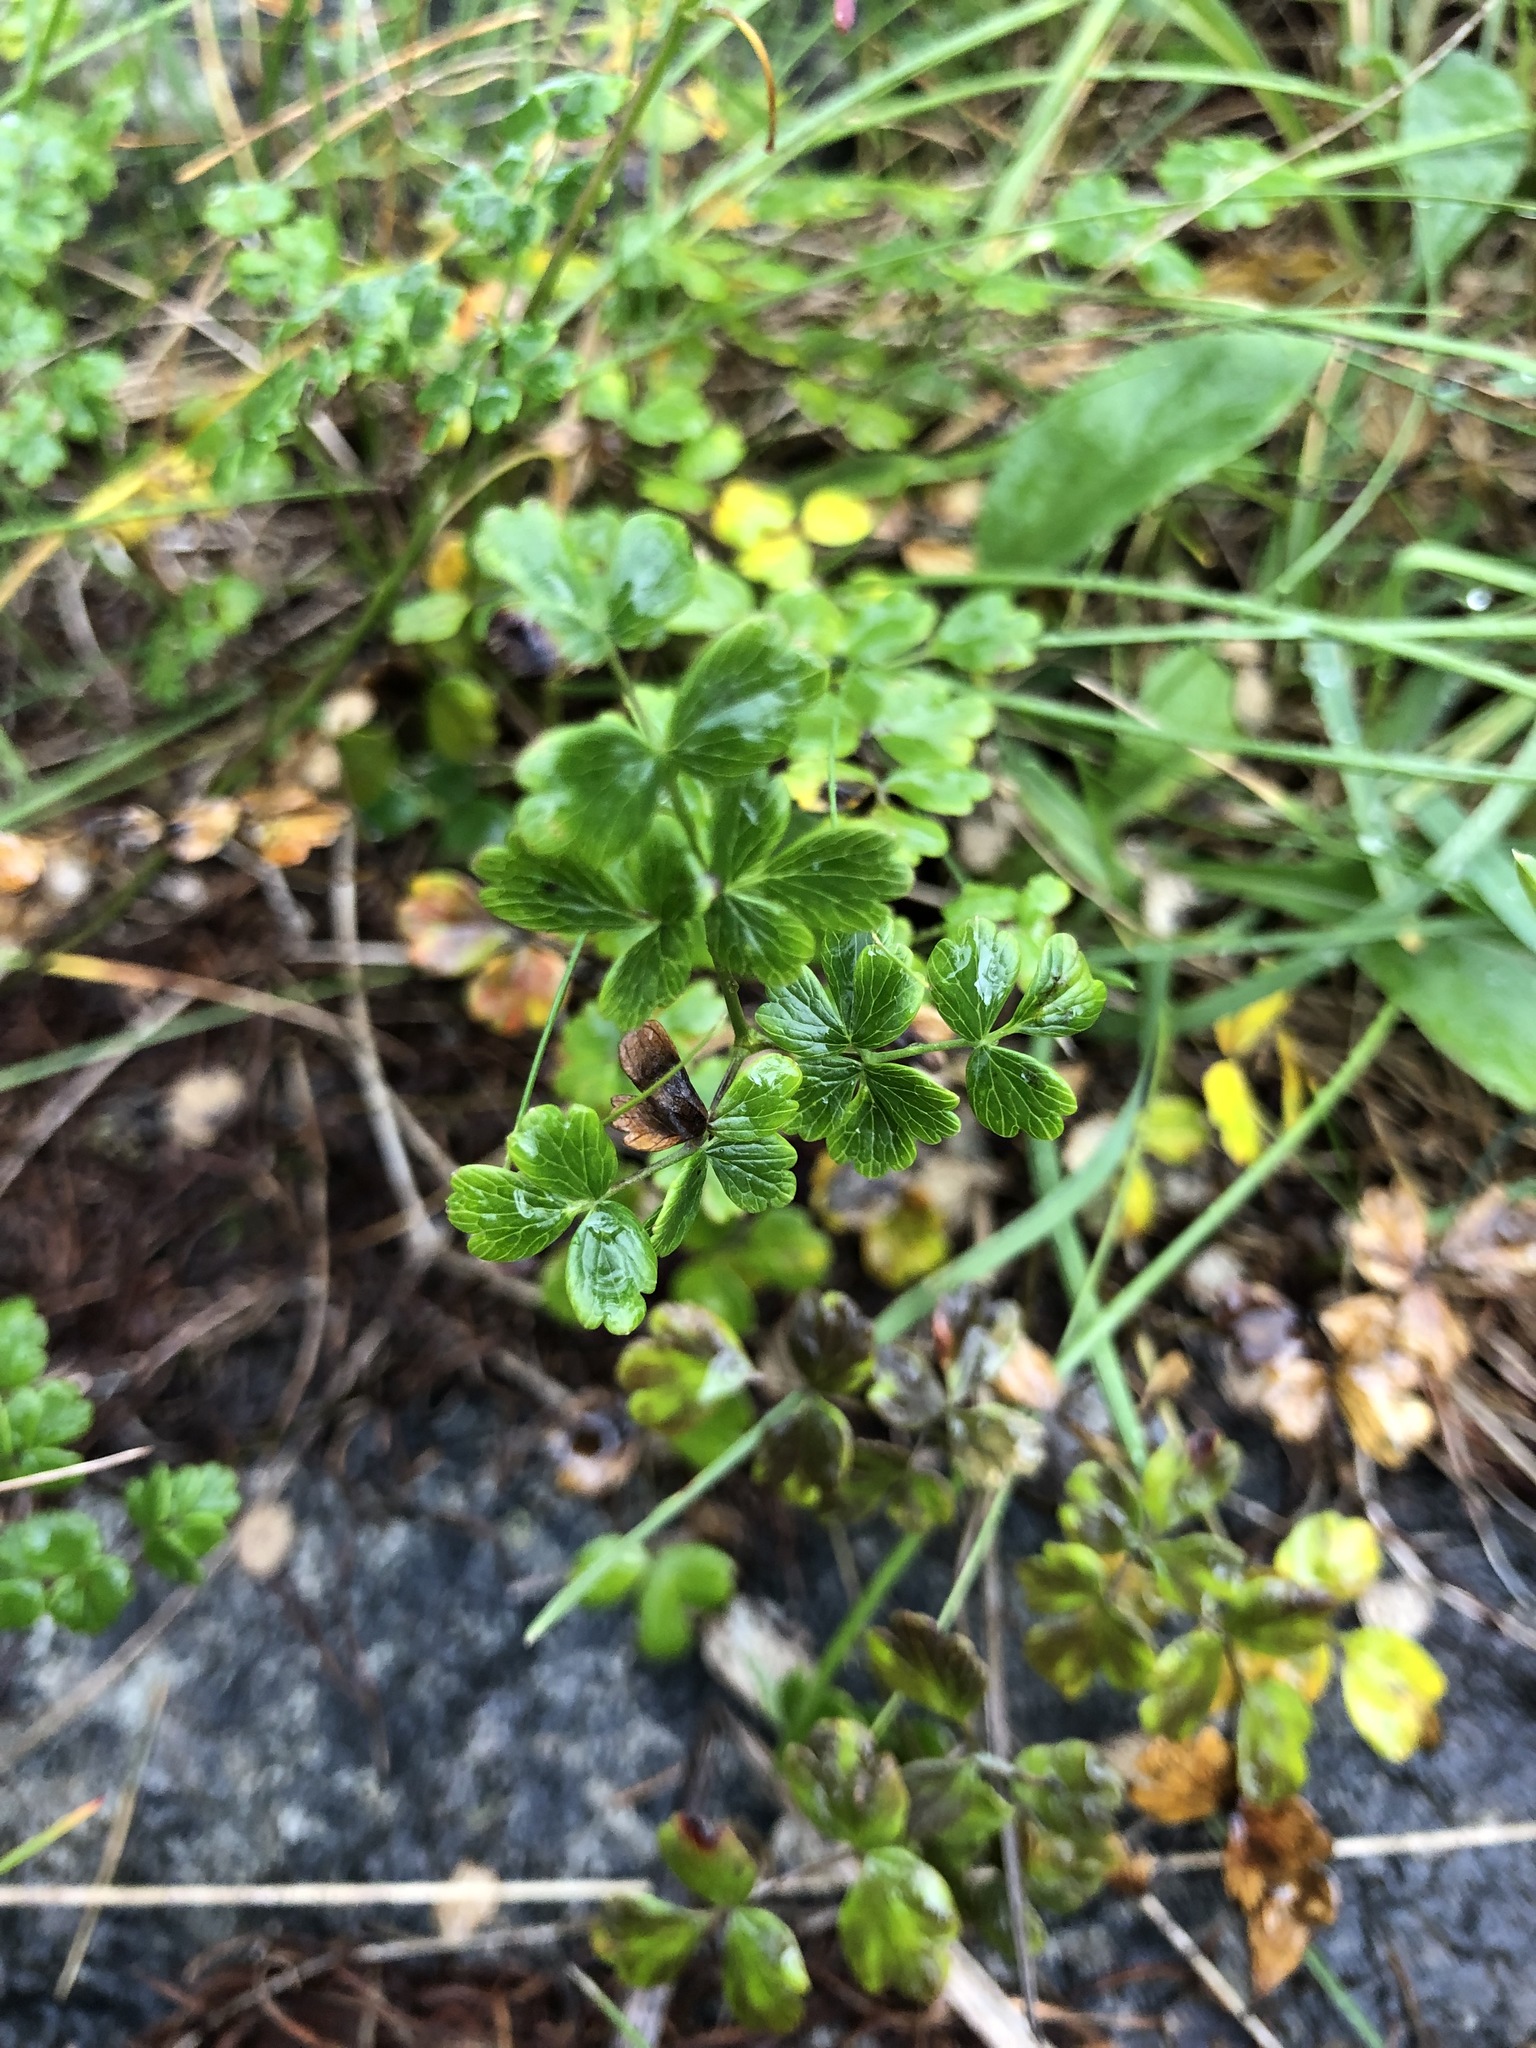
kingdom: Plantae
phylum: Tracheophyta
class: Magnoliopsida
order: Ranunculales
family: Ranunculaceae
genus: Thalictrum
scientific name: Thalictrum alpinum
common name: Alpine meadow-rue
